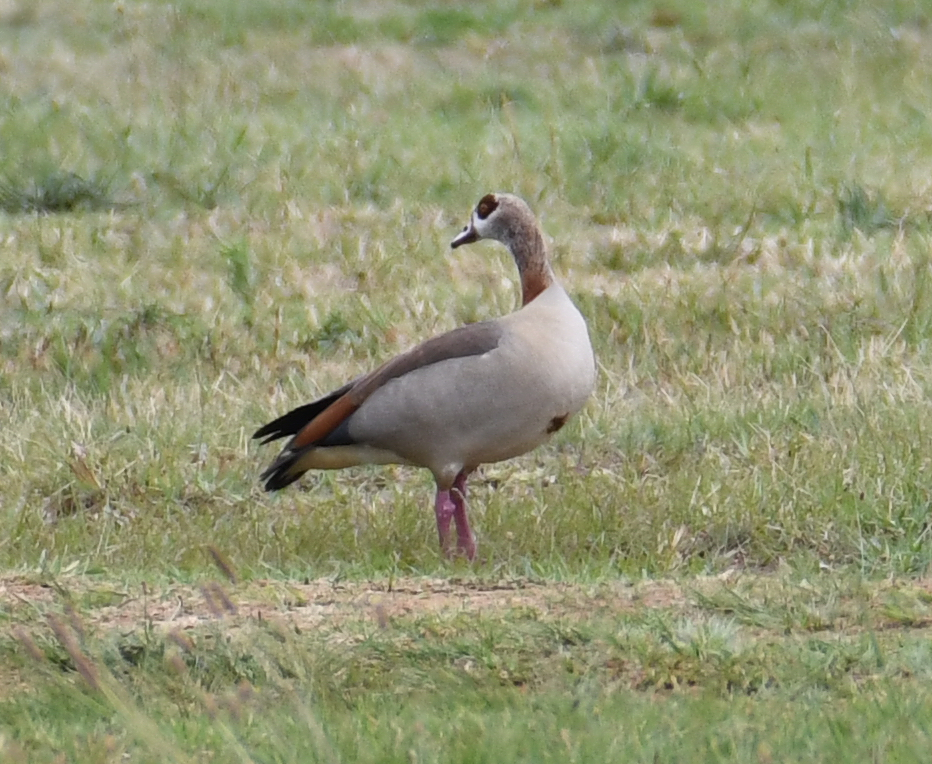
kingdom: Animalia
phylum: Chordata
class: Aves
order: Anseriformes
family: Anatidae
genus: Alopochen
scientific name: Alopochen aegyptiaca
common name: Egyptian goose
